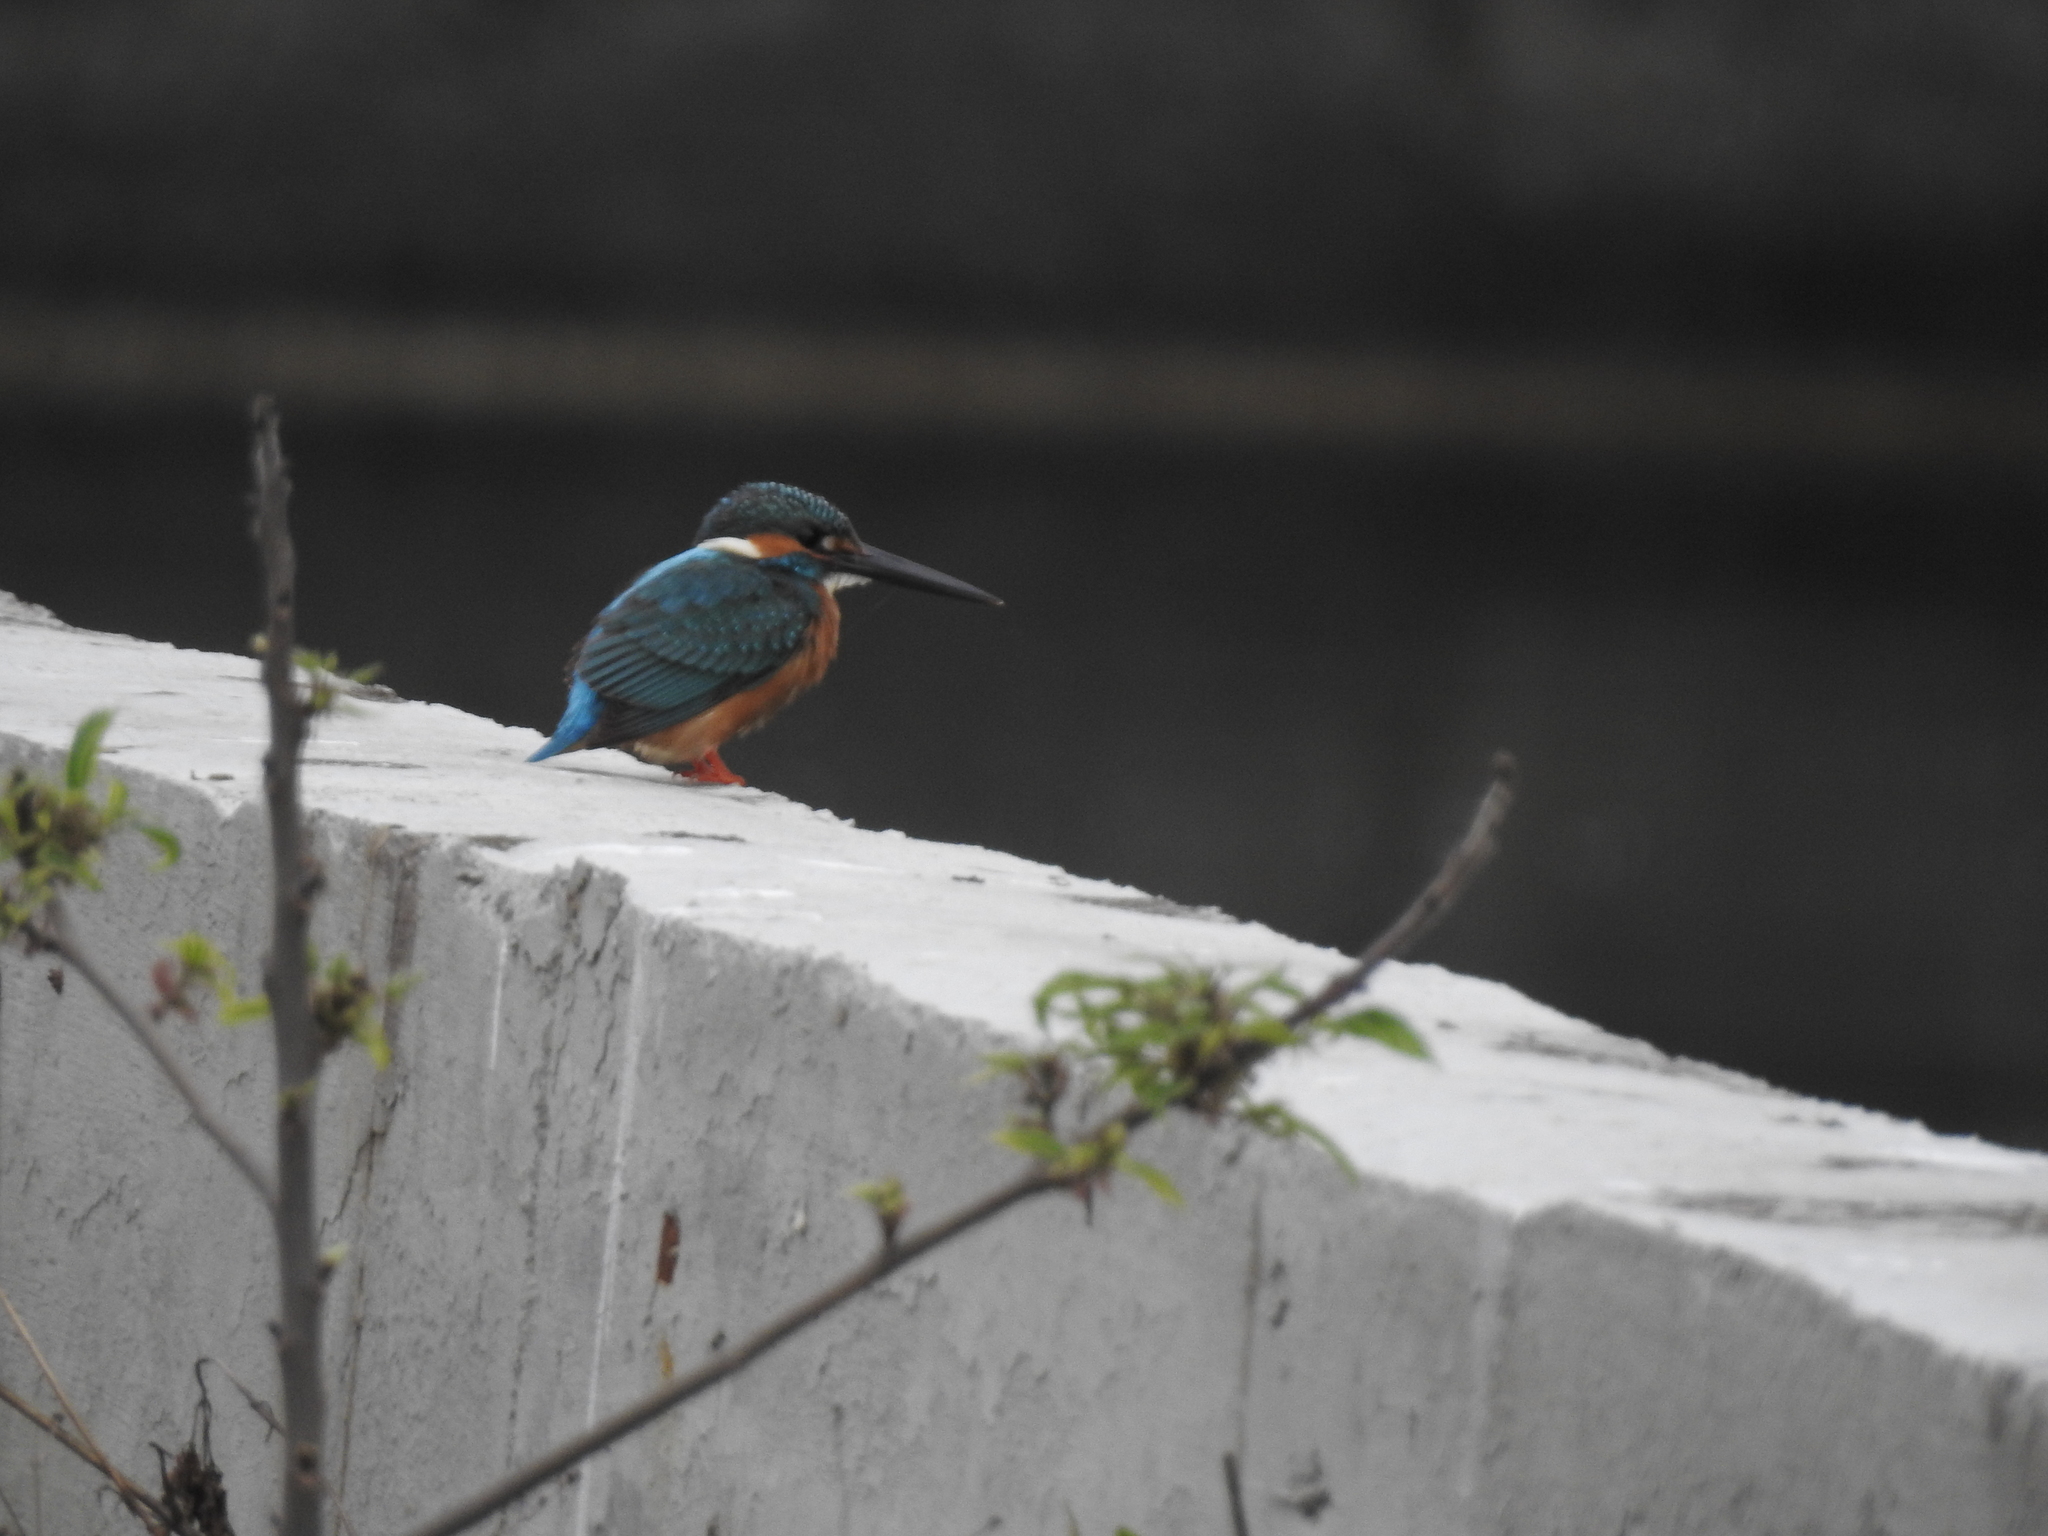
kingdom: Animalia
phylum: Chordata
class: Aves
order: Coraciiformes
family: Alcedinidae
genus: Alcedo
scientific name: Alcedo atthis
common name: Common kingfisher
